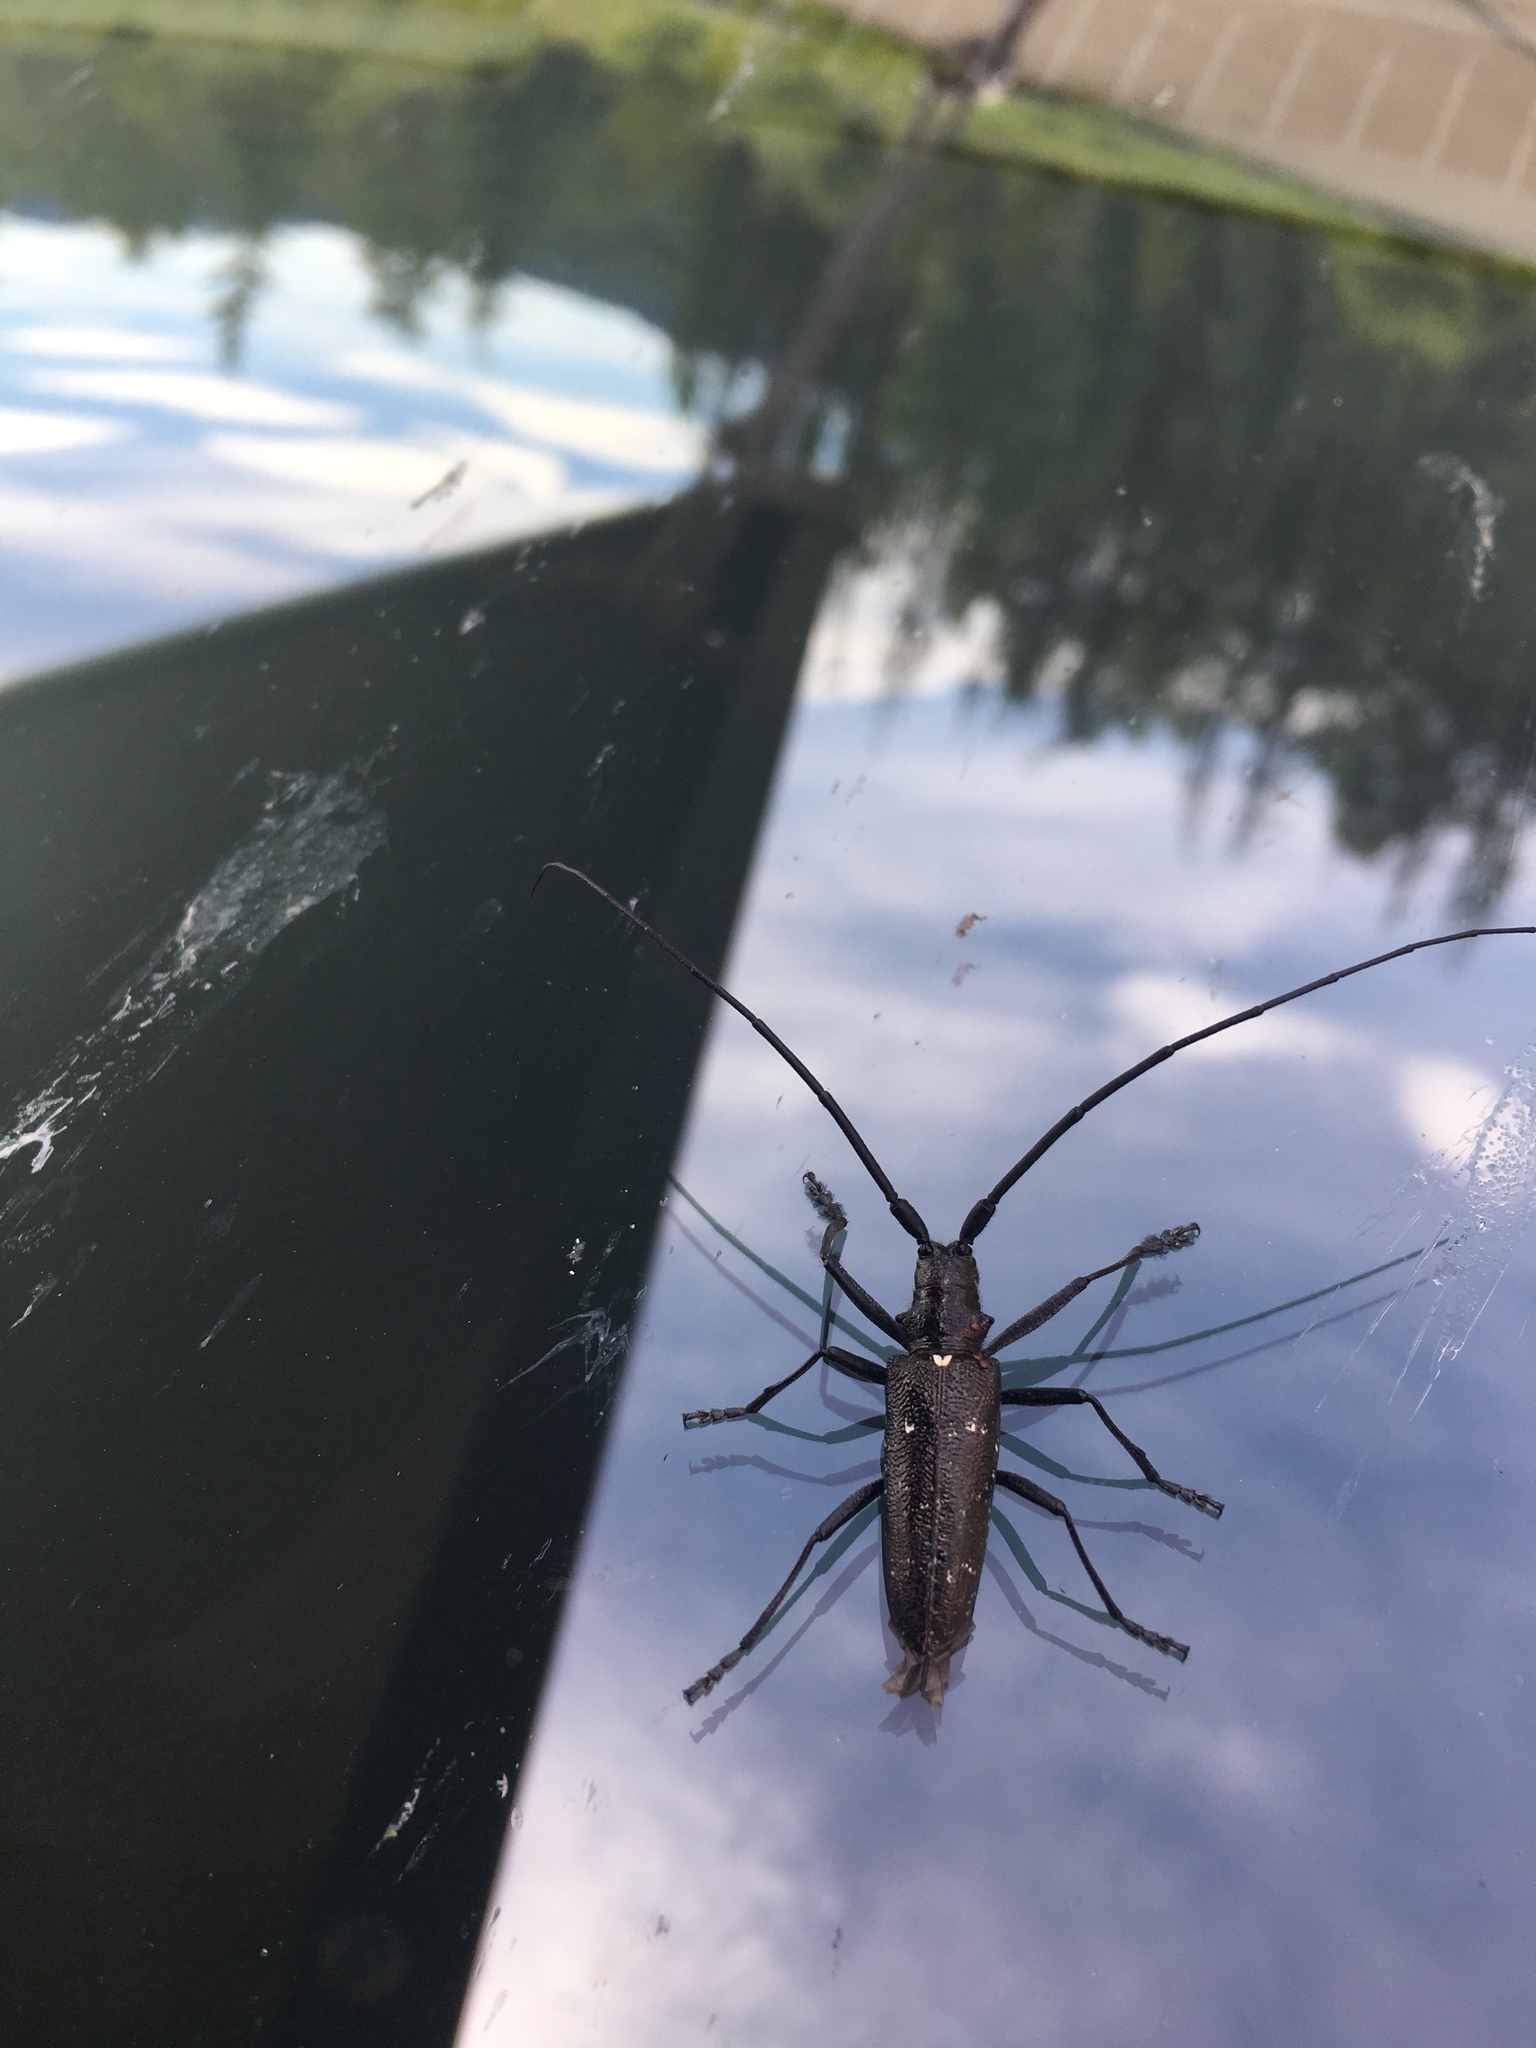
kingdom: Animalia
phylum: Arthropoda
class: Insecta
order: Coleoptera
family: Cerambycidae
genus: Monochamus
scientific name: Monochamus scutellatus
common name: White-spotted sawyer beetle
